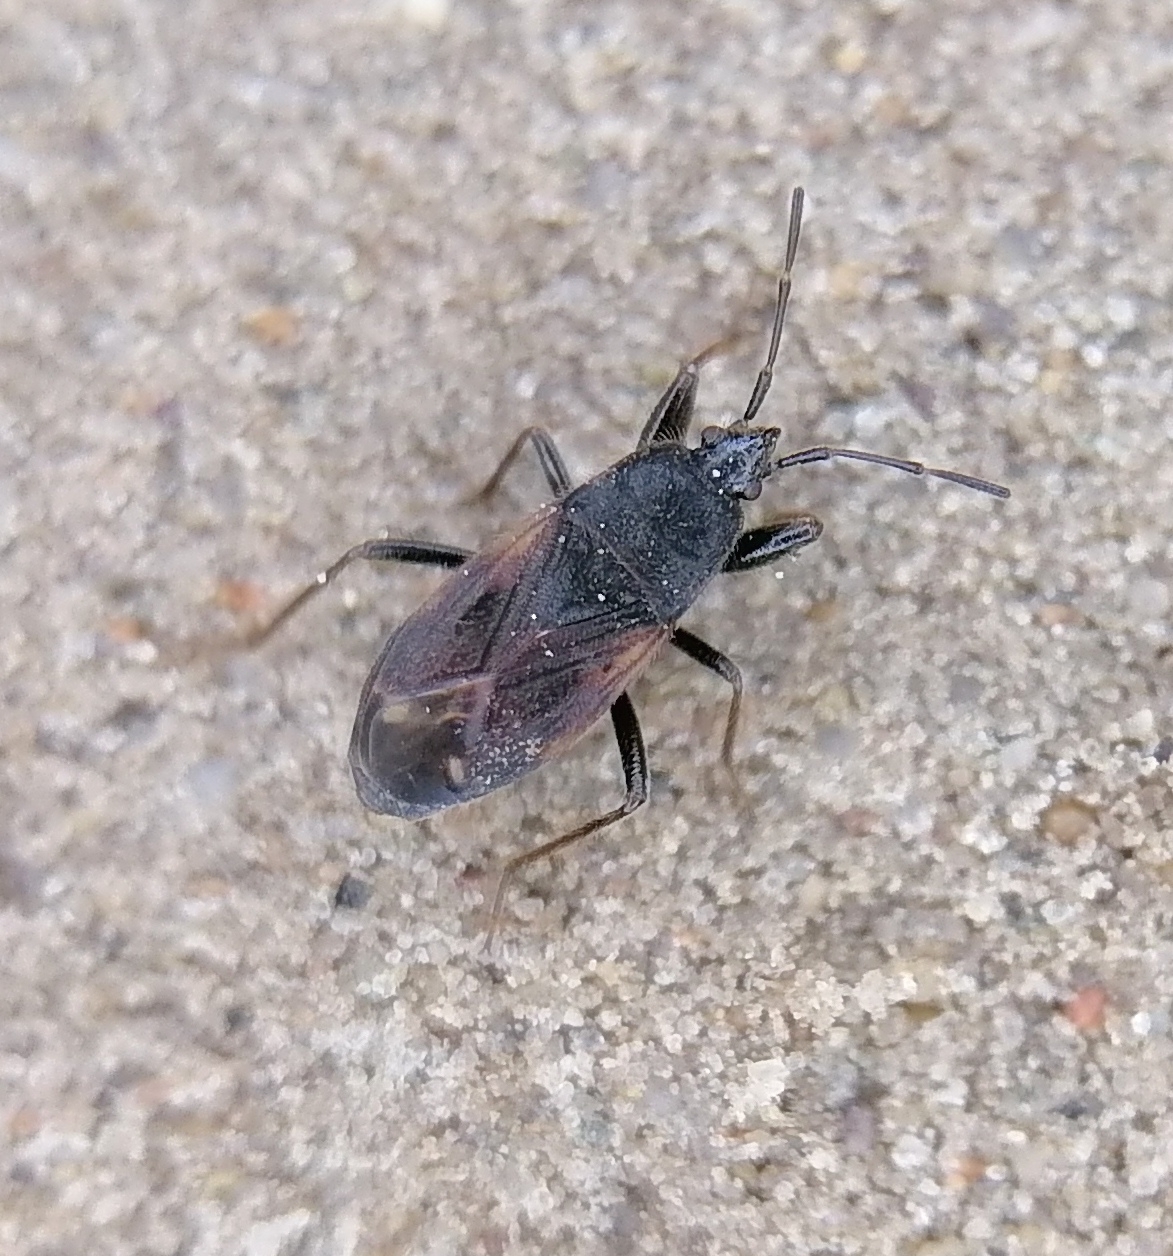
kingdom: Animalia
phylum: Arthropoda
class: Insecta
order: Hemiptera
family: Rhyparochromidae
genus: Eremocoris
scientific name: Eremocoris plebejus
